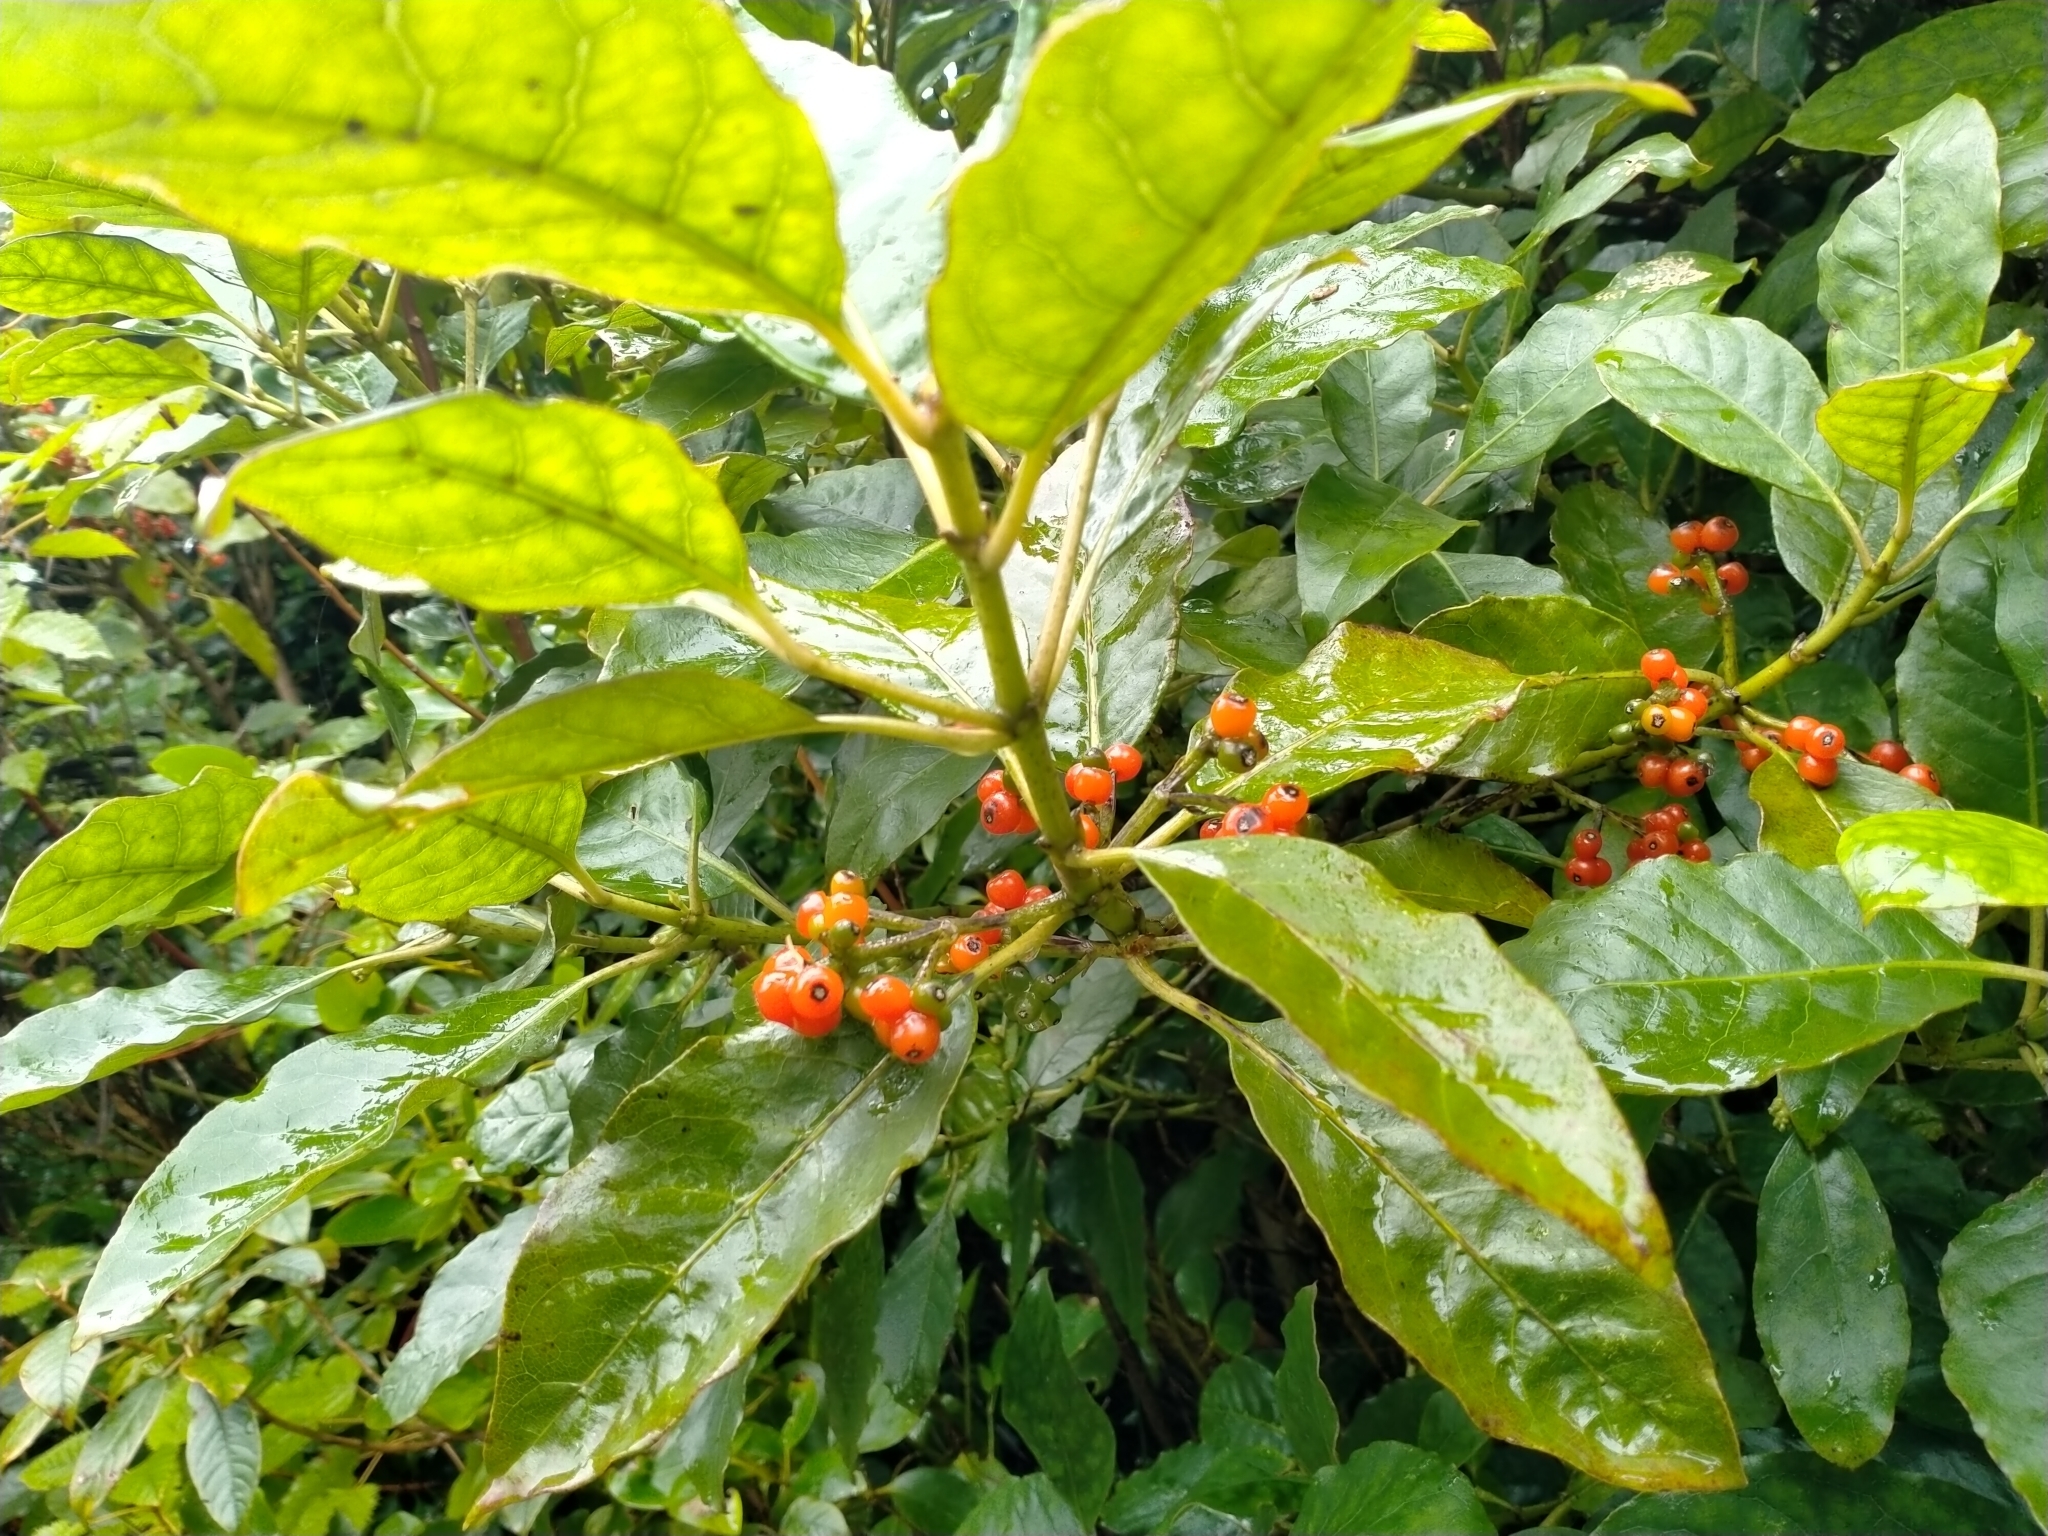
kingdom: Plantae
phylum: Tracheophyta
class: Magnoliopsida
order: Gentianales
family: Rubiaceae
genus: Coprosma
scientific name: Coprosma autumnalis
